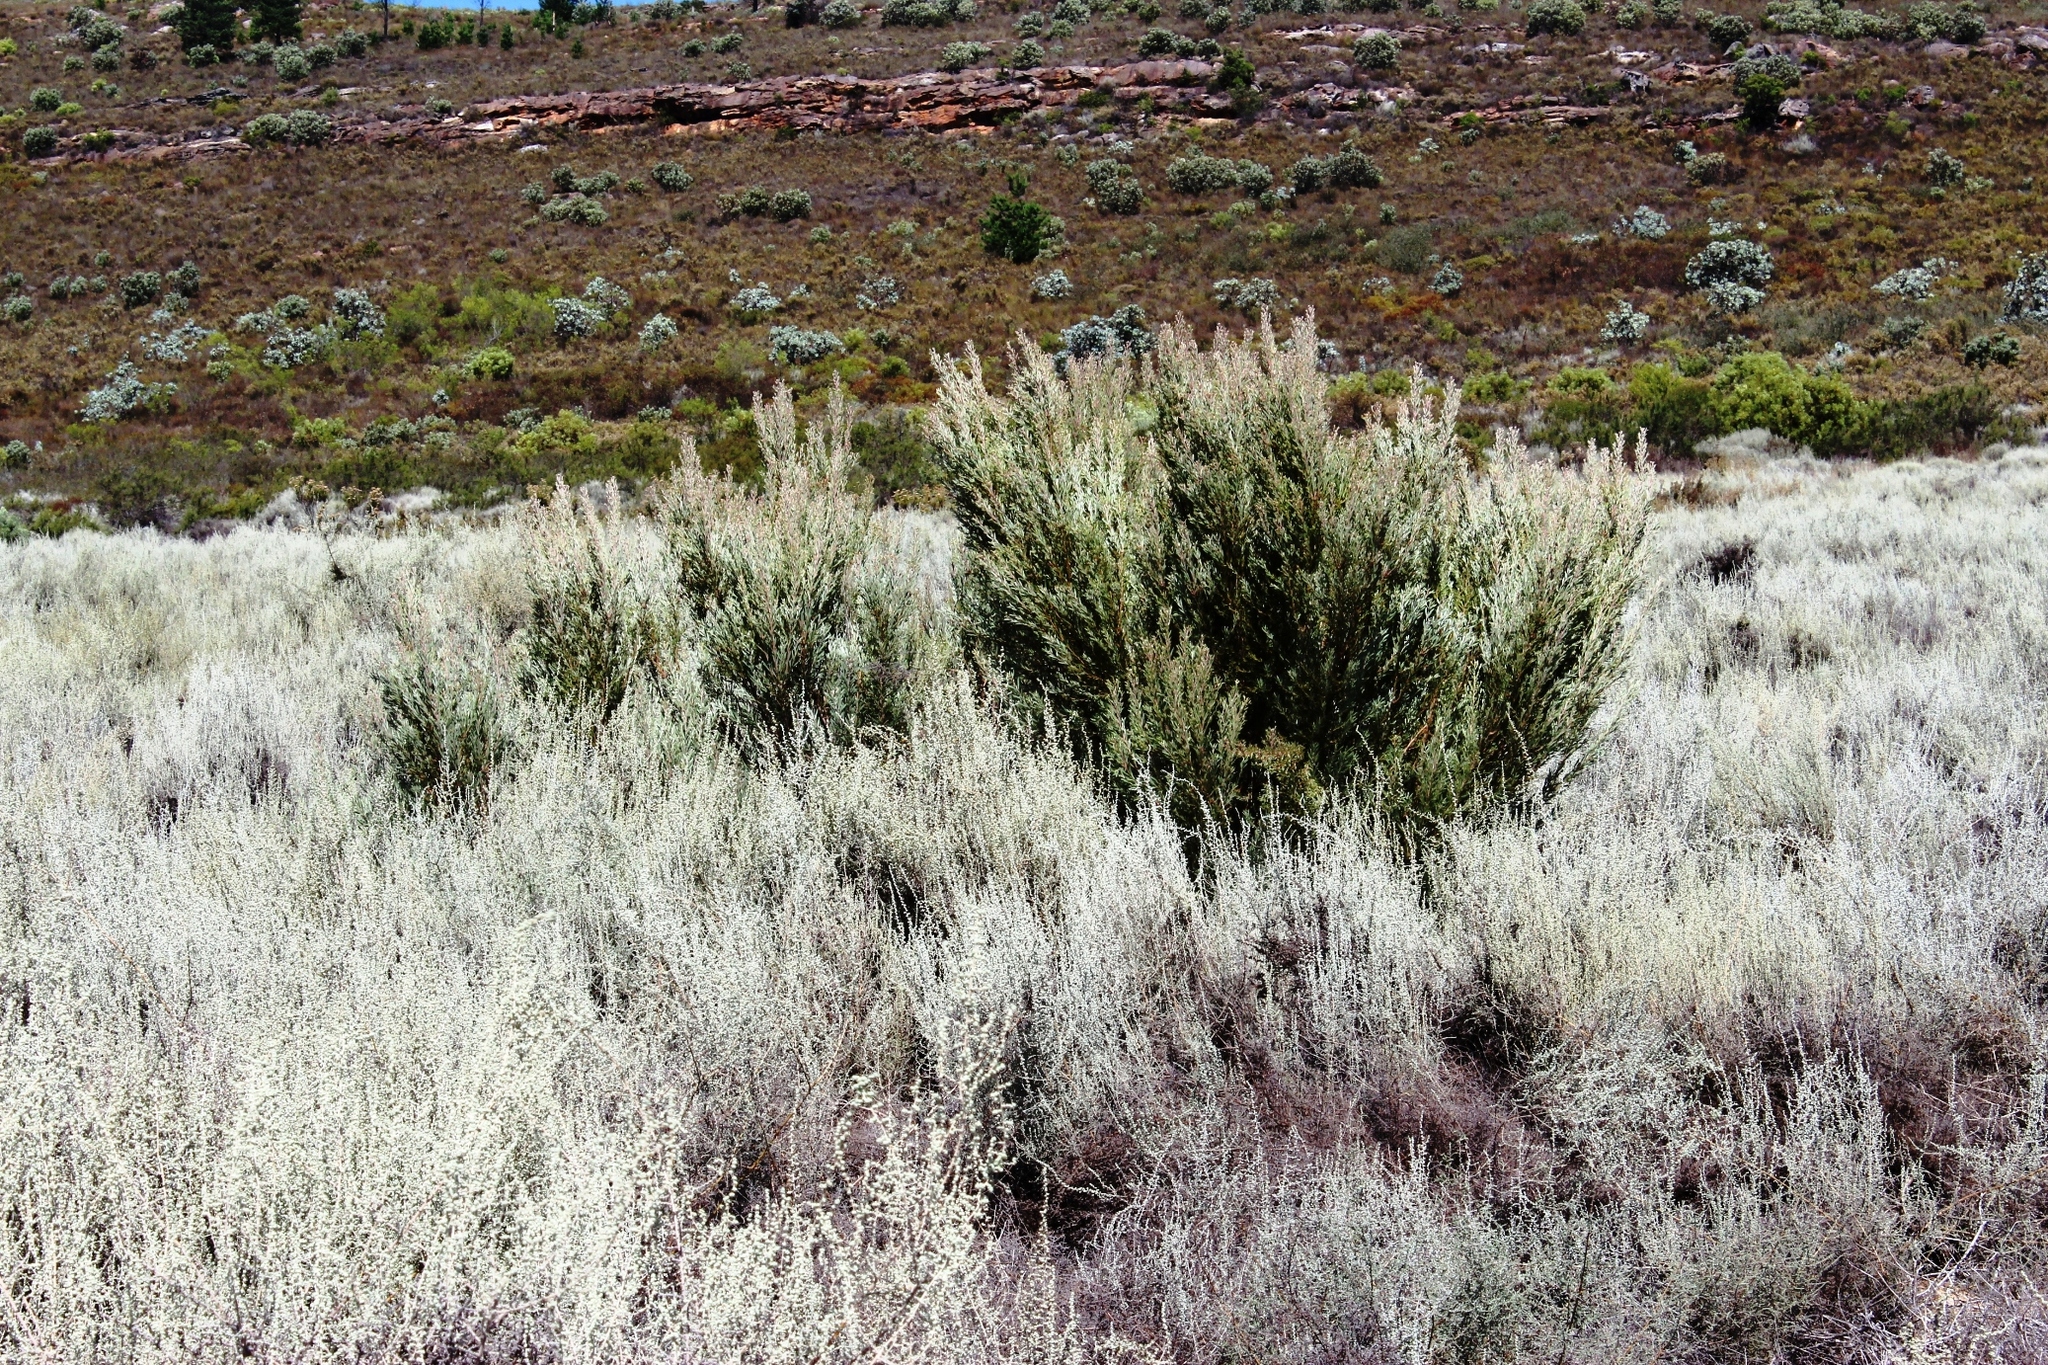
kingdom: Plantae
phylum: Tracheophyta
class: Magnoliopsida
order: Proteales
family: Proteaceae
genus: Leucadendron
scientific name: Leucadendron rubrum
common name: Spinning top
